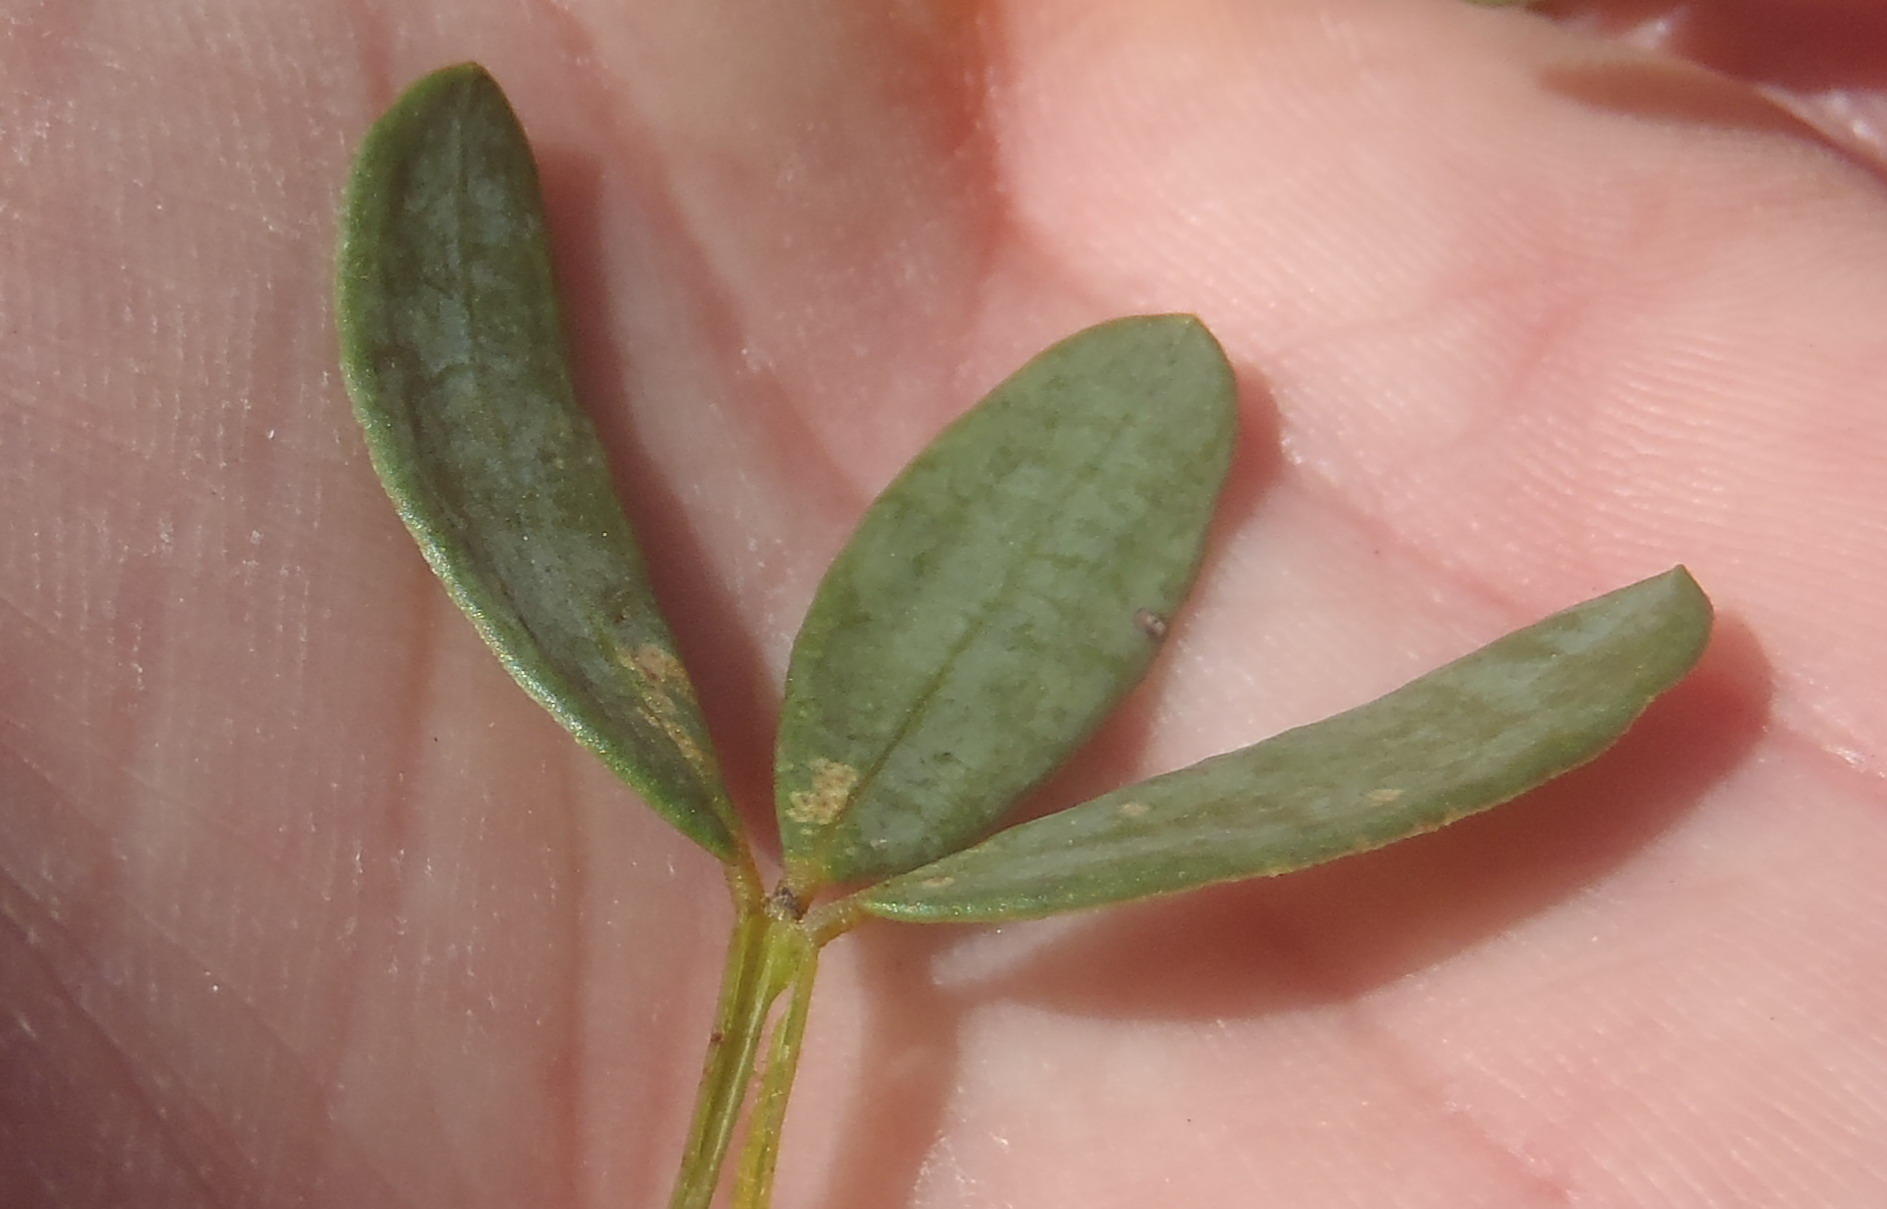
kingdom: Plantae
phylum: Tracheophyta
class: Magnoliopsida
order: Fabales
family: Fabaceae
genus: Cyclopia
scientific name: Cyclopia subternata
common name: Honeybush tea
